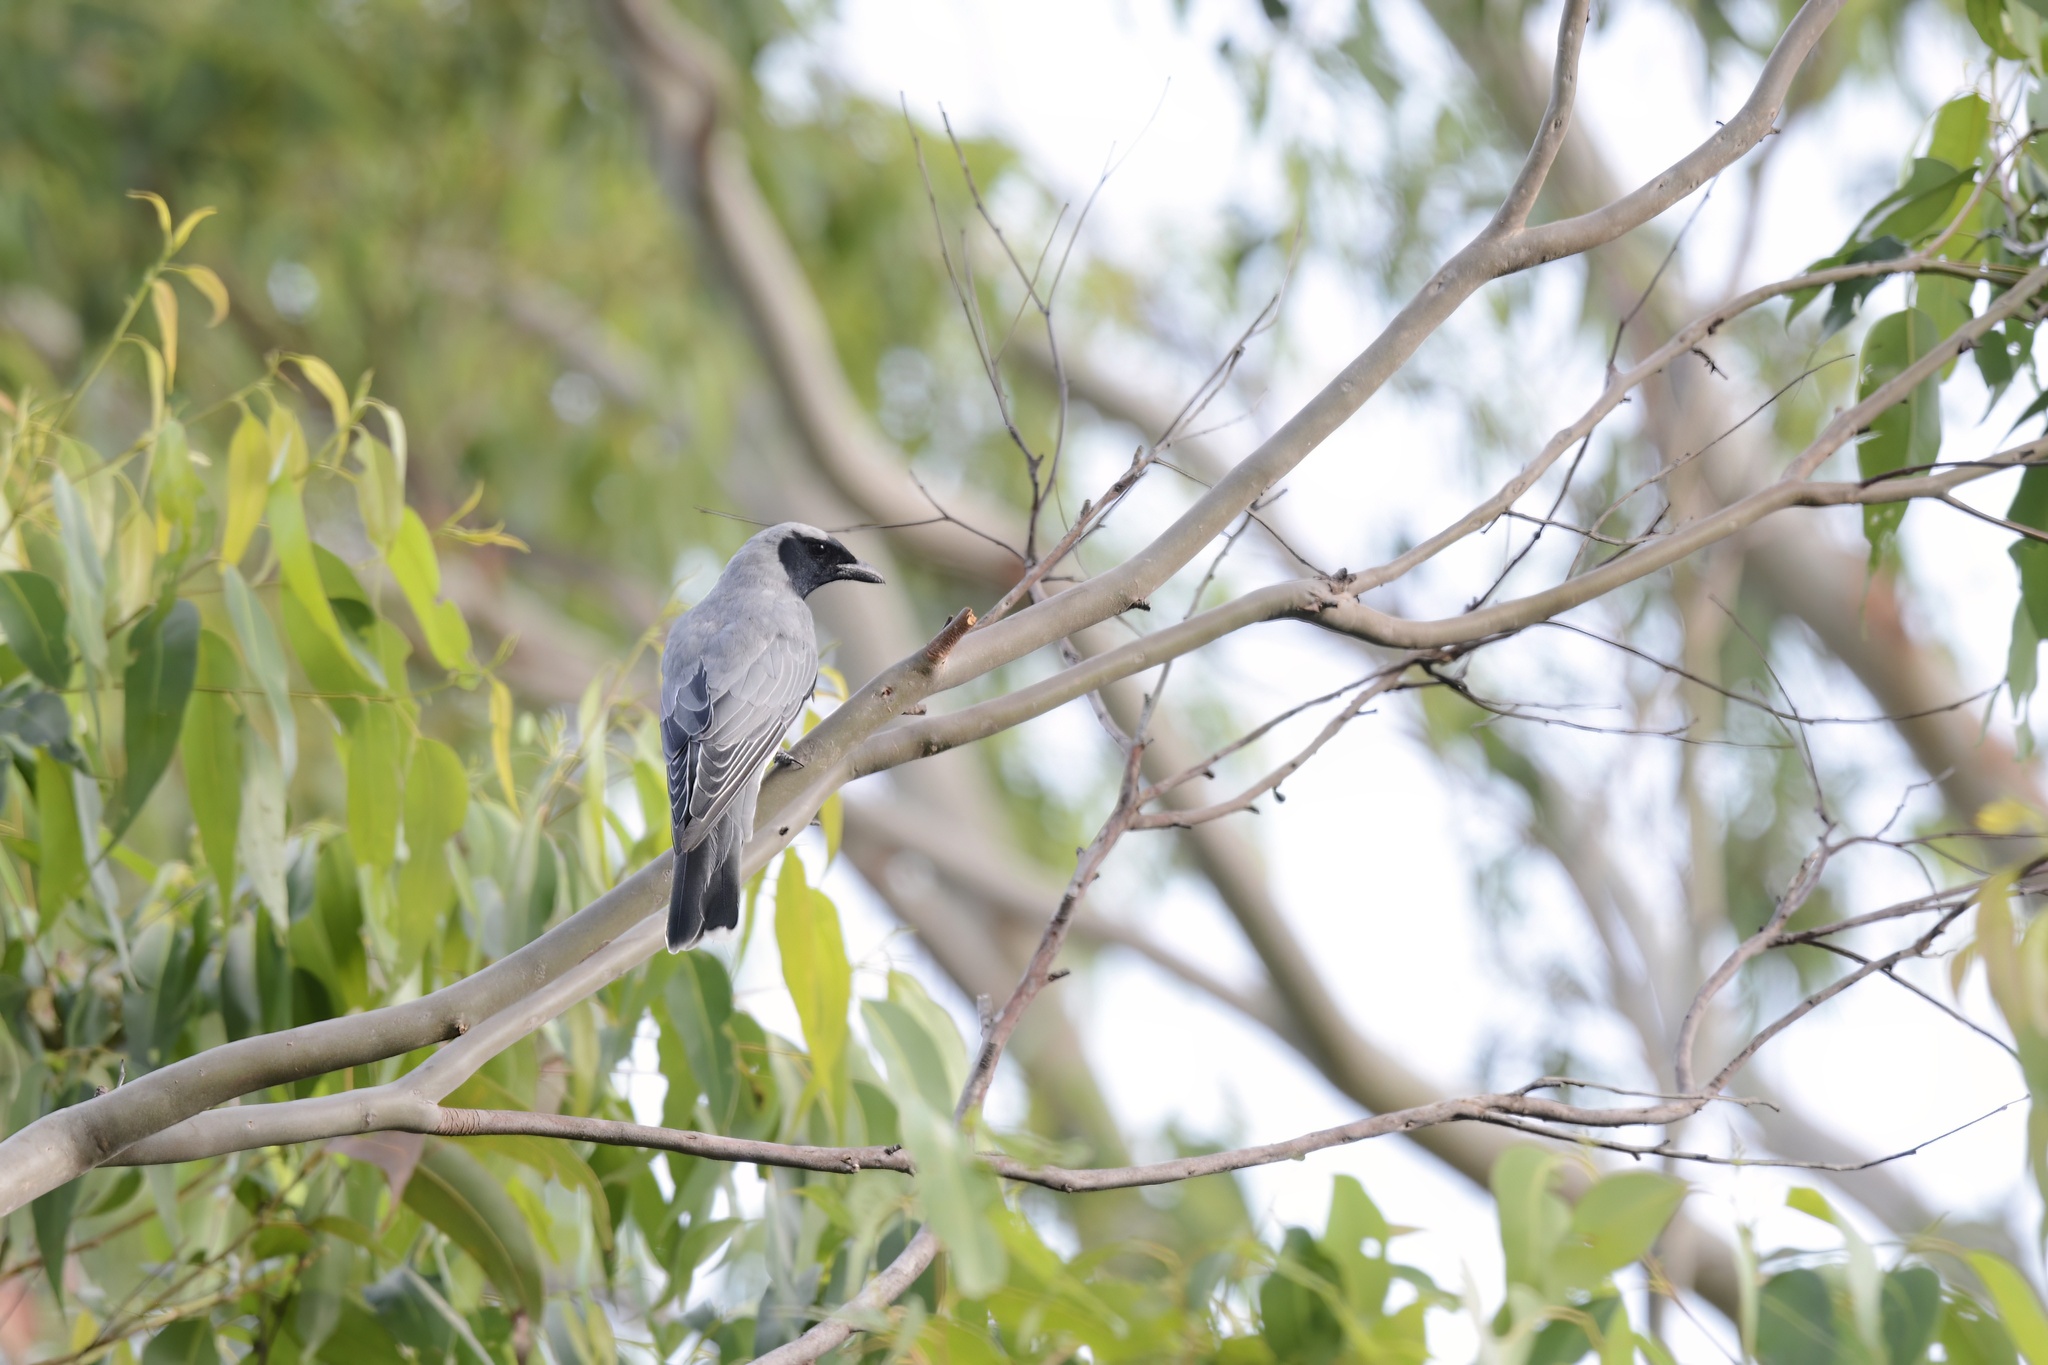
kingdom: Animalia
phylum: Chordata
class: Aves
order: Passeriformes
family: Campephagidae
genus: Coracina
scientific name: Coracina novaehollandiae
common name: Black-faced cuckooshrike
